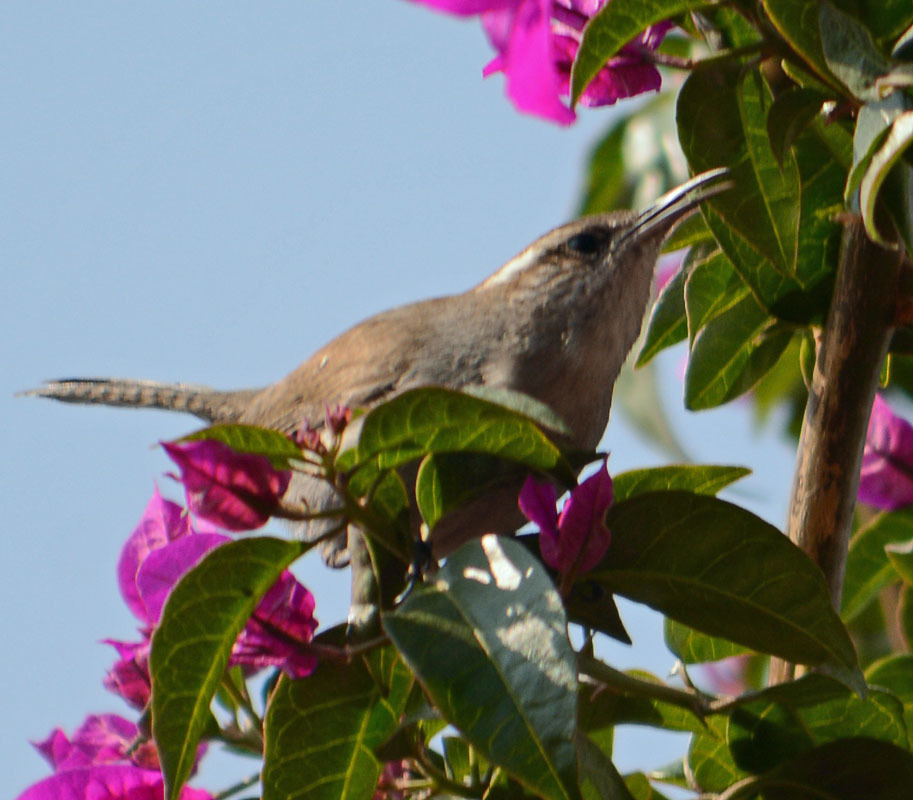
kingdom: Animalia
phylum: Chordata
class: Aves
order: Passeriformes
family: Troglodytidae
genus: Thryomanes
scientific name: Thryomanes bewickii
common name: Bewick's wren
